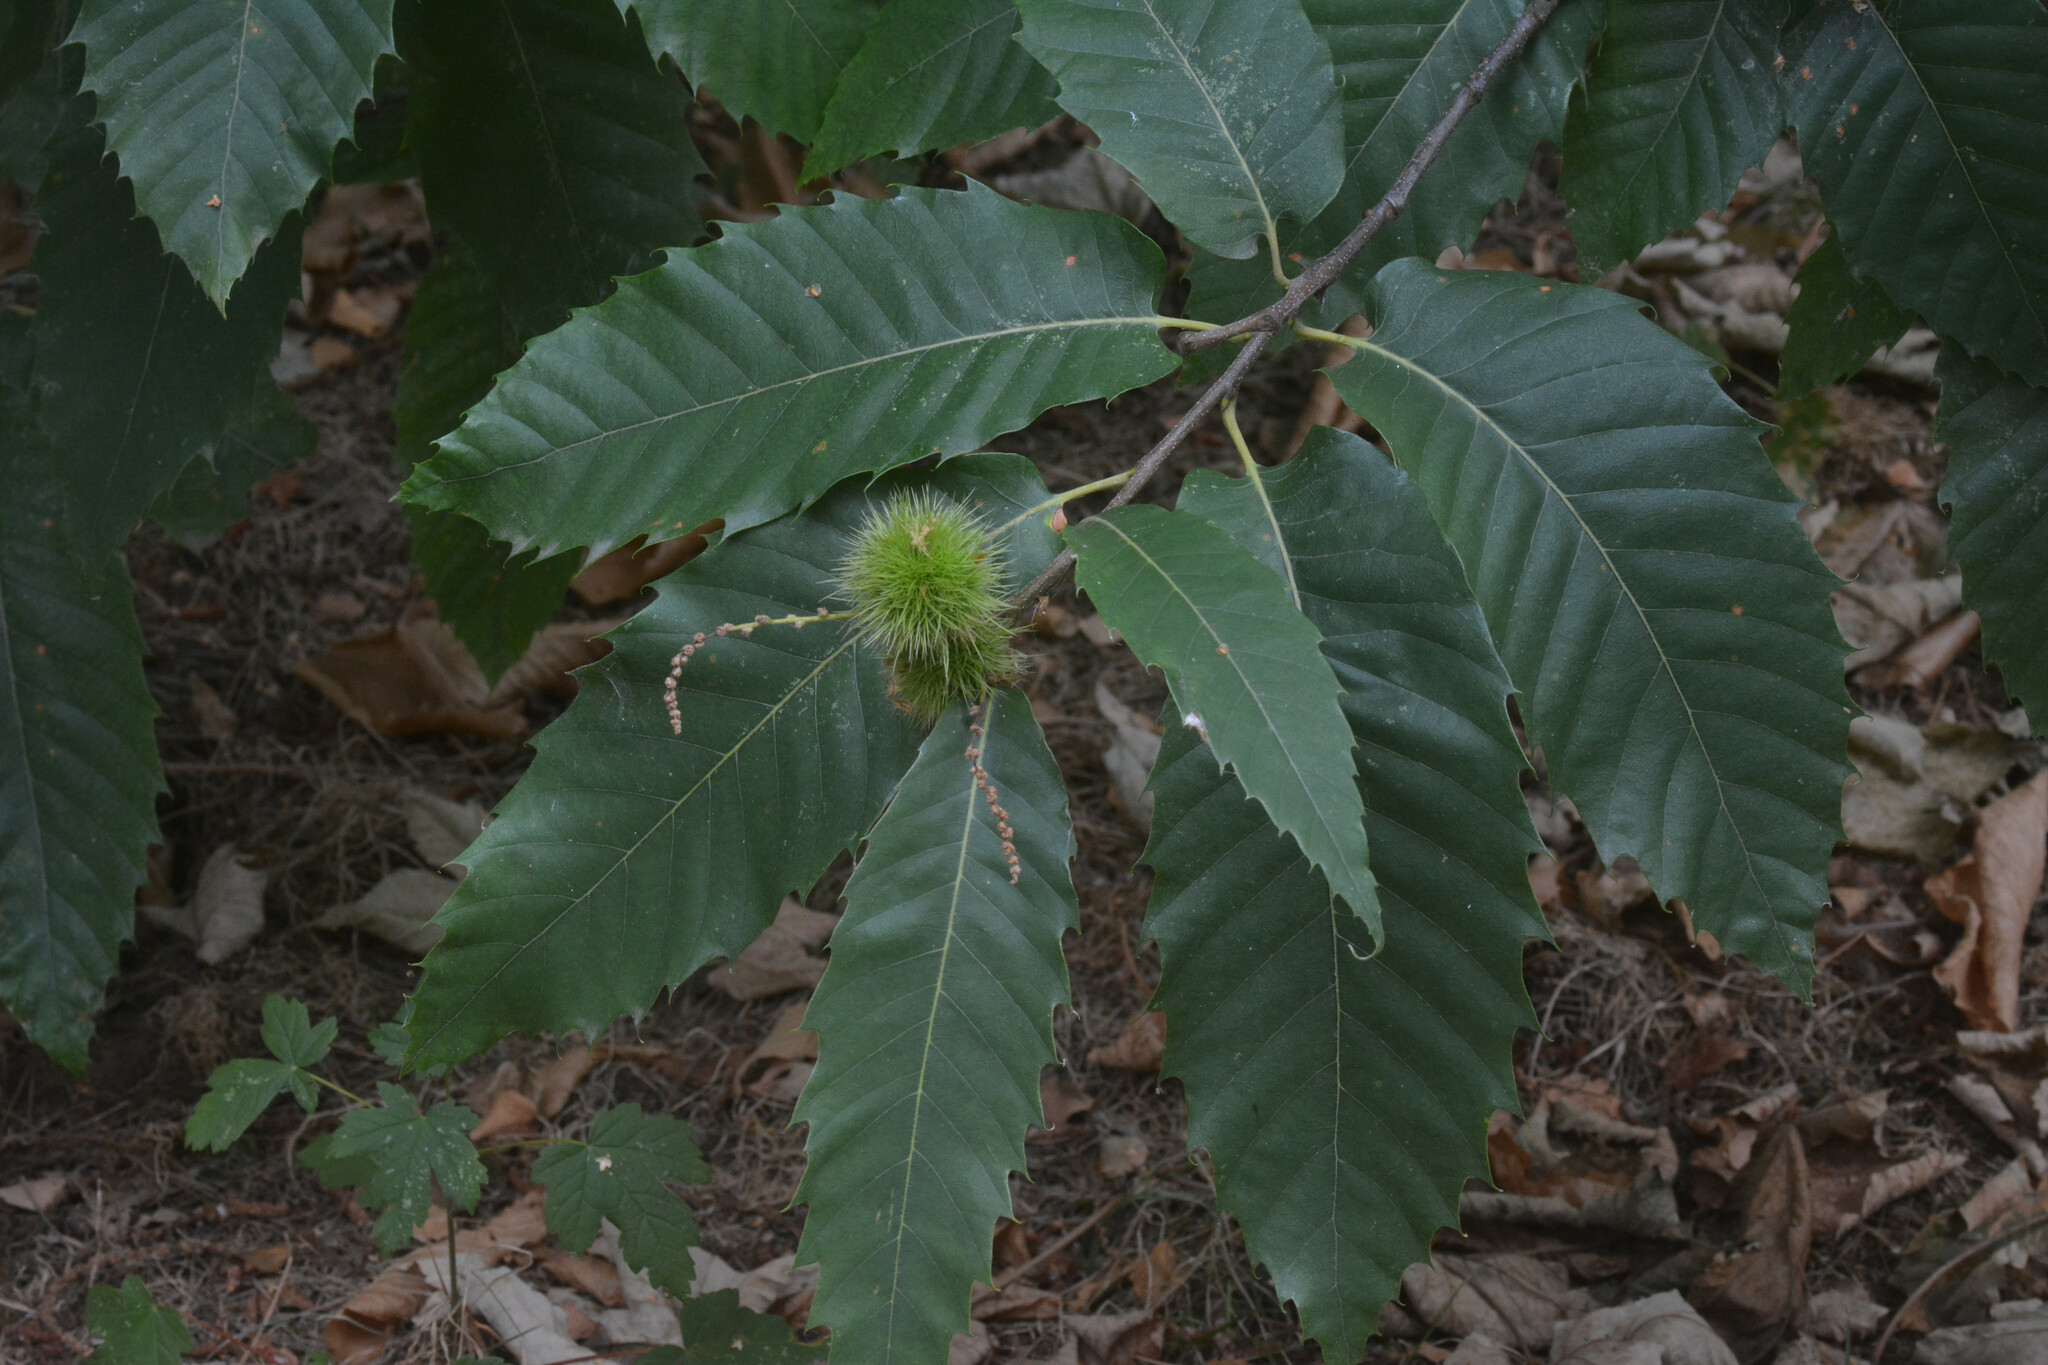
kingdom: Plantae
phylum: Tracheophyta
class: Magnoliopsida
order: Fagales
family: Fagaceae
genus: Castanea
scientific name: Castanea sativa
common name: Sweet chestnut
